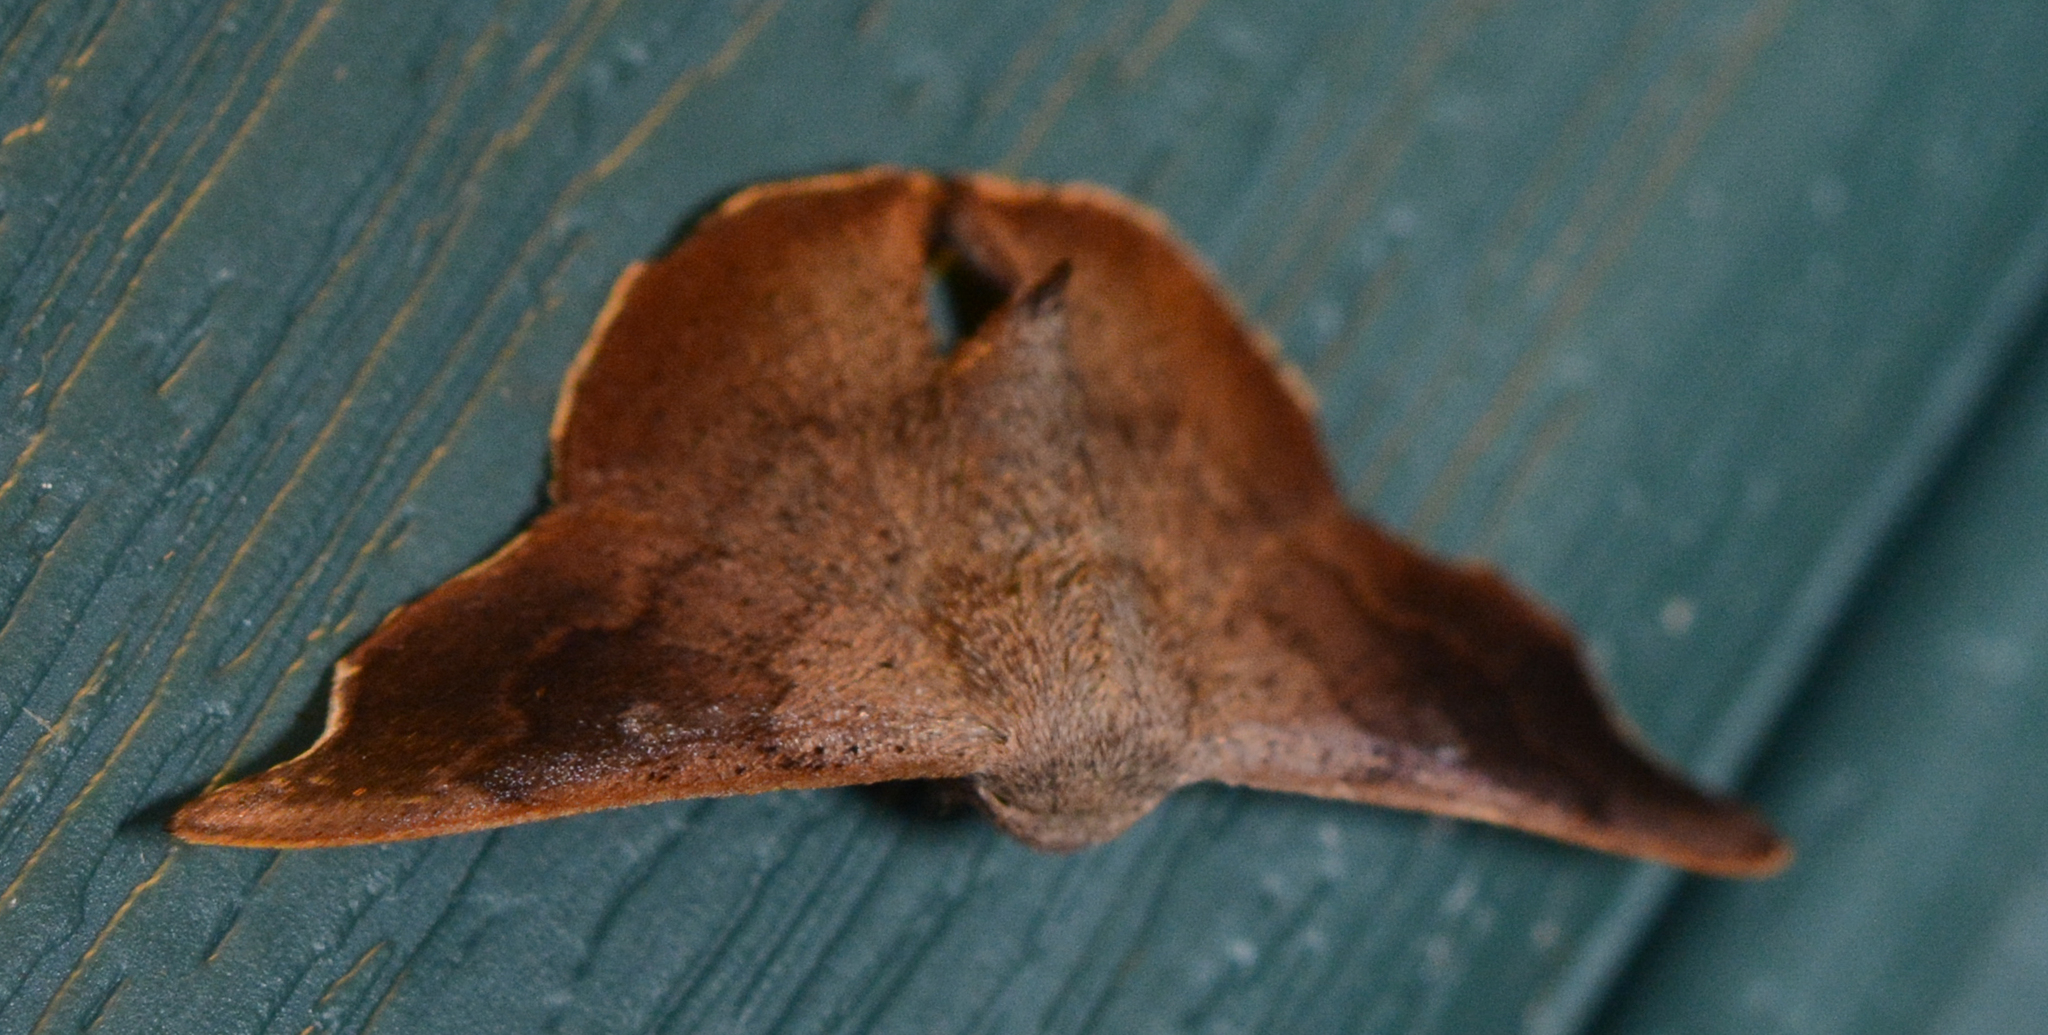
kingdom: Animalia
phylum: Arthropoda
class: Insecta
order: Lepidoptera
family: Mimallonidae
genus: Lacosoma
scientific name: Lacosoma chiridota
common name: Scalloped sack-bearer moth
